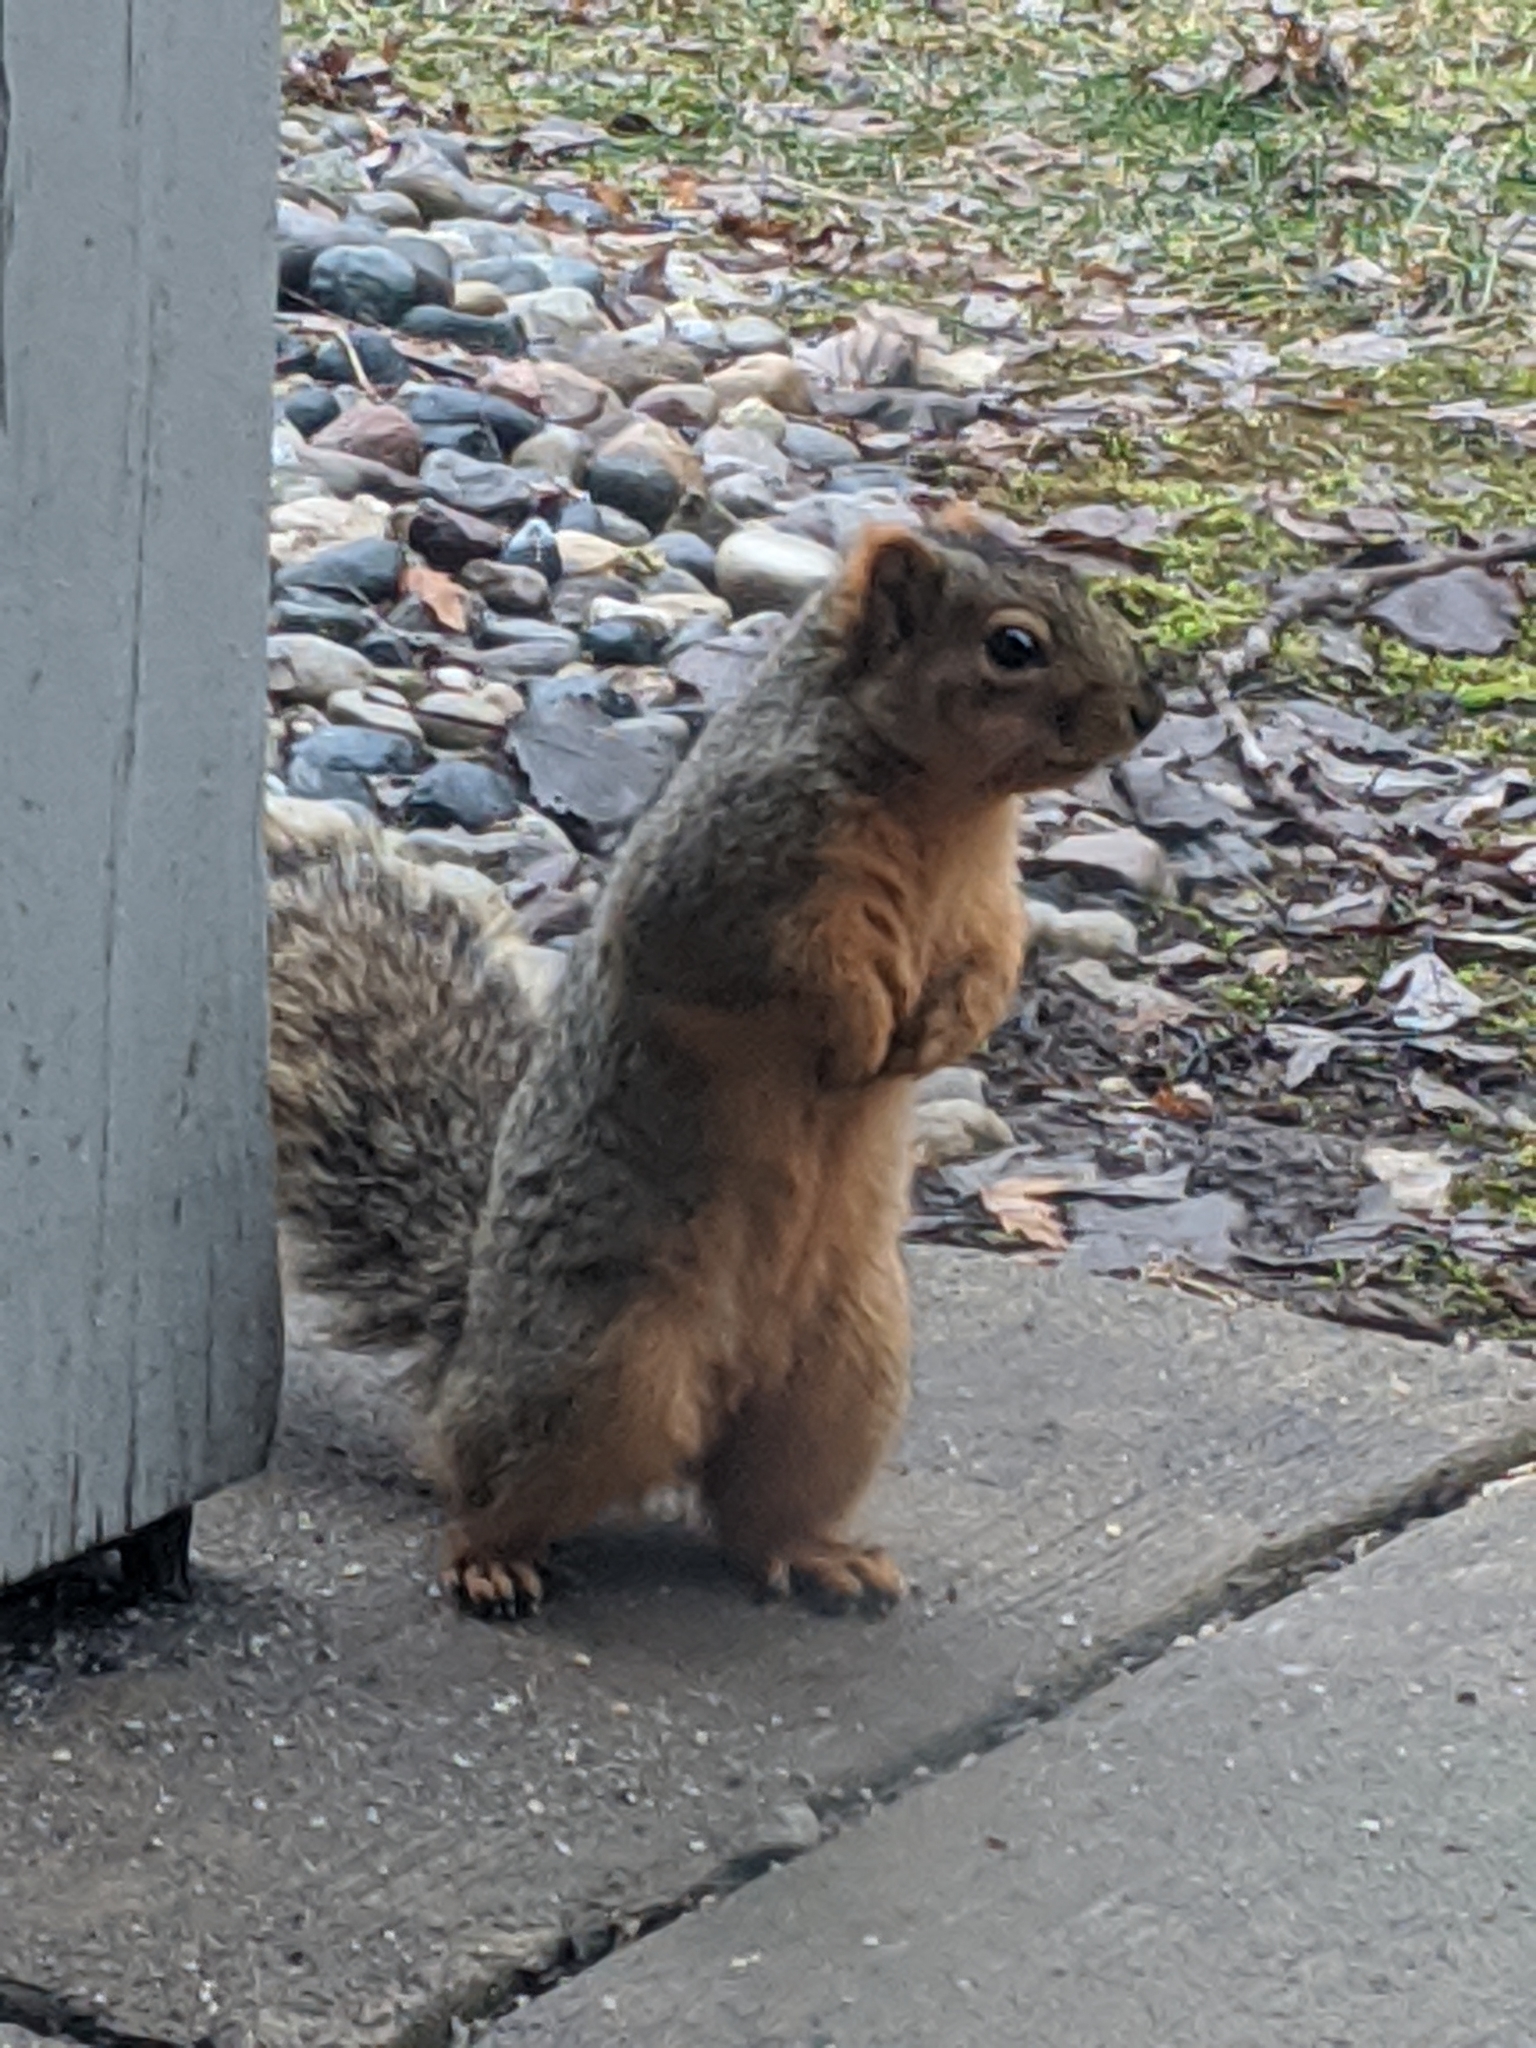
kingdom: Animalia
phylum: Chordata
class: Mammalia
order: Rodentia
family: Sciuridae
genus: Sciurus
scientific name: Sciurus niger
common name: Fox squirrel
